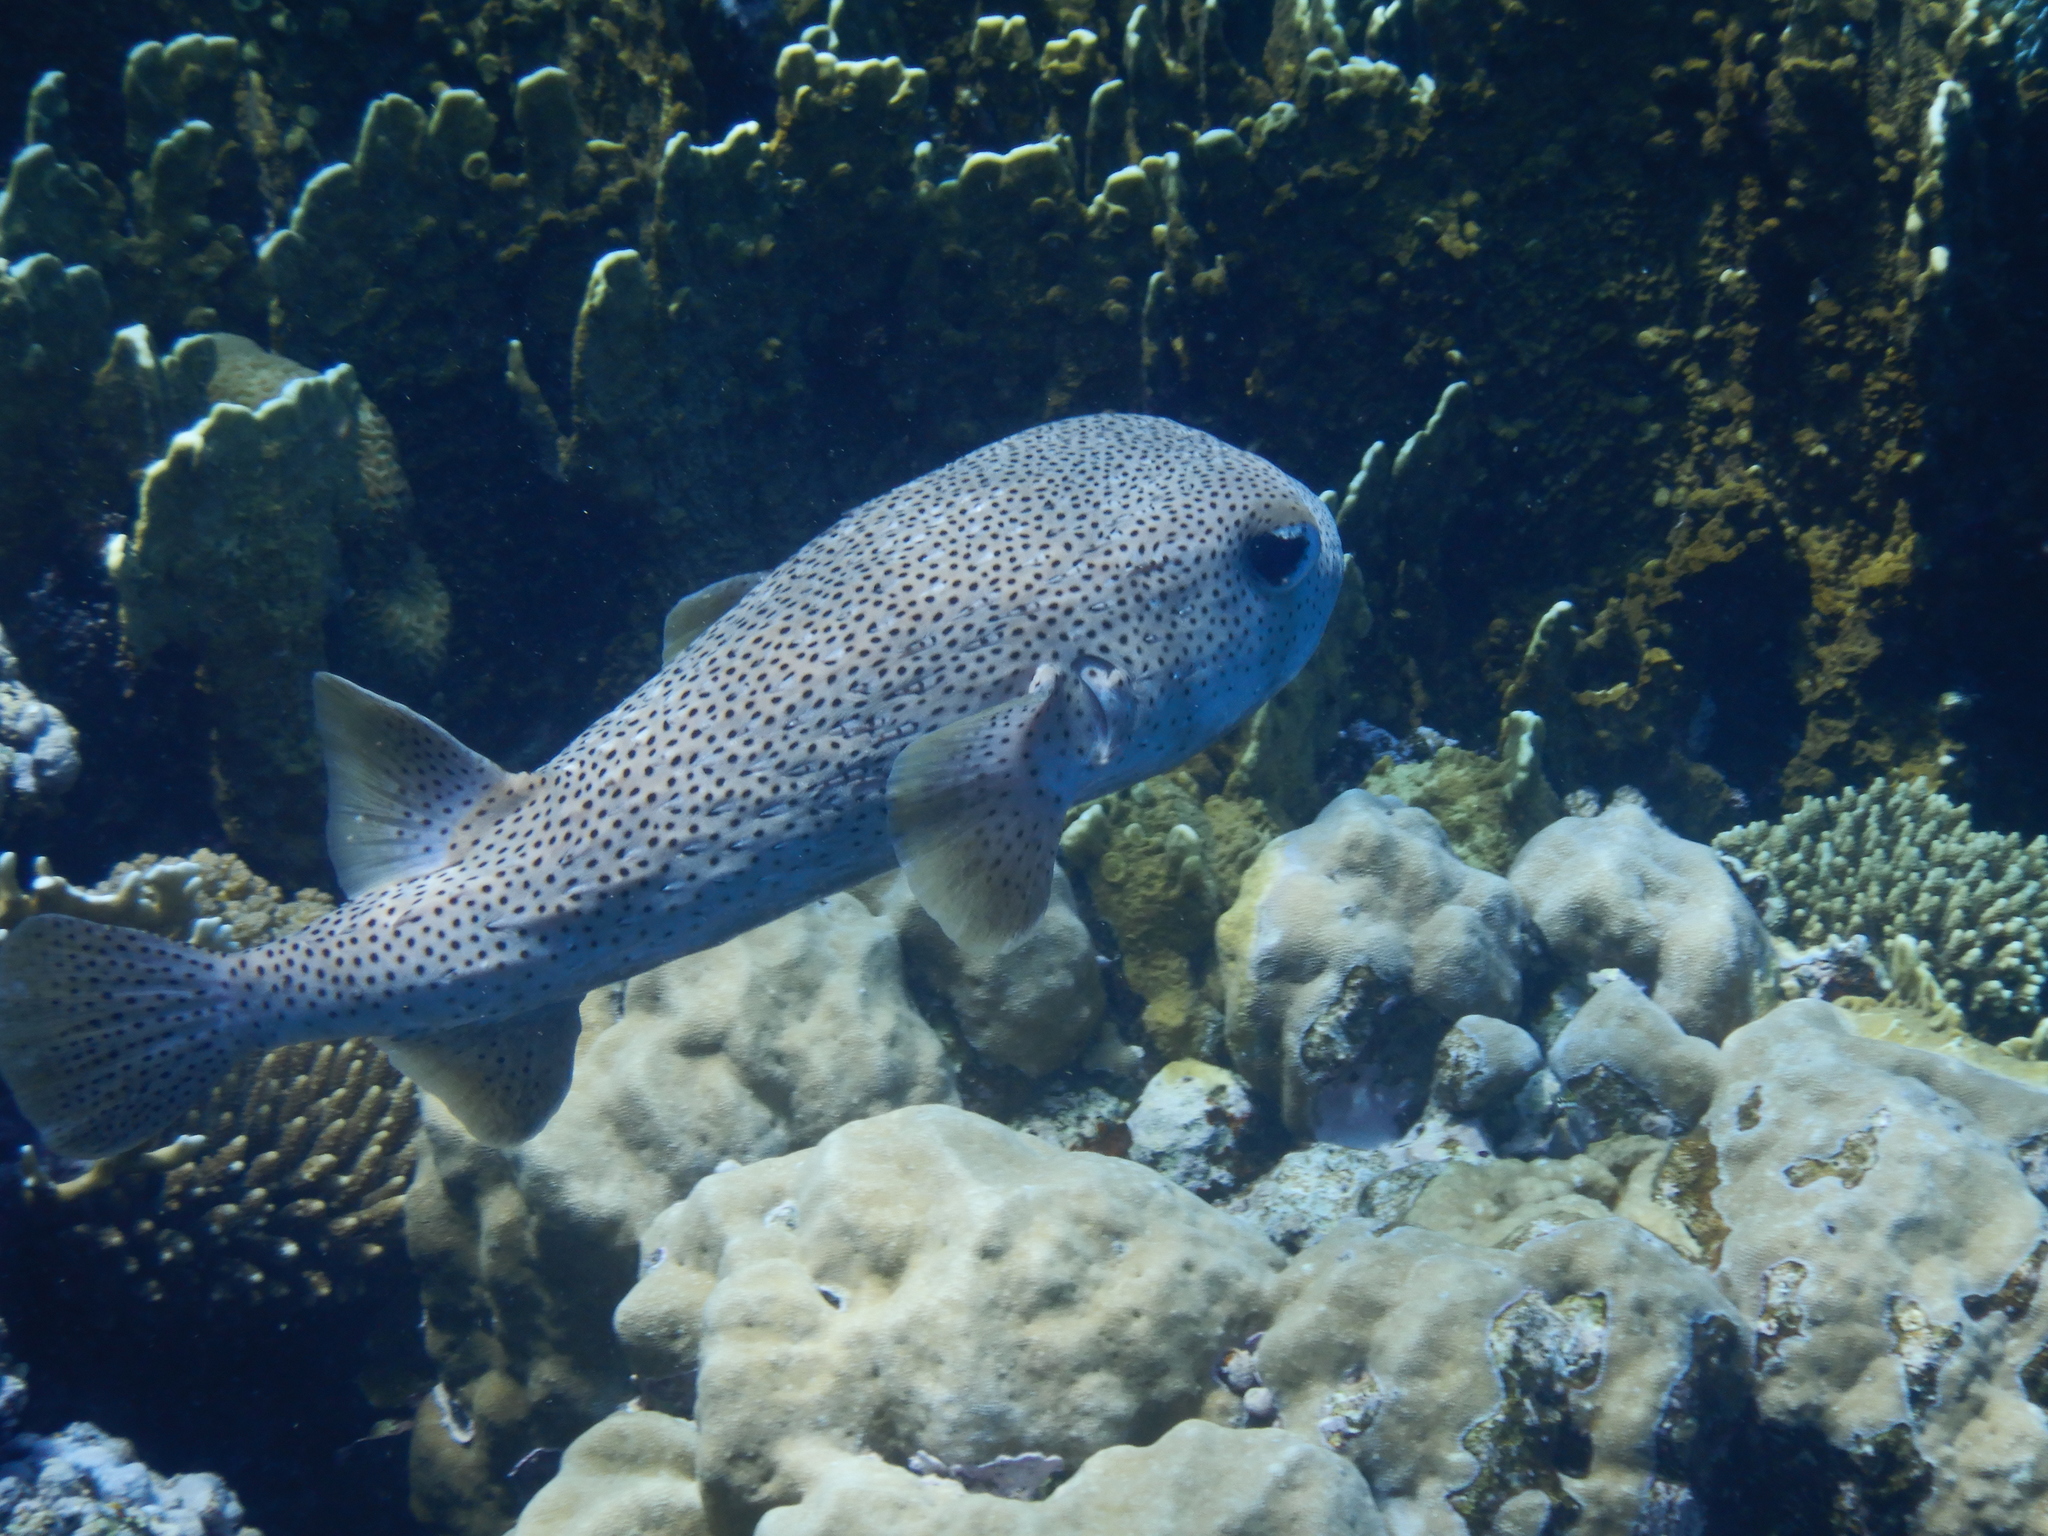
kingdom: Animalia
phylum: Chordata
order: Tetraodontiformes
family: Diodontidae
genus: Diodon
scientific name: Diodon hystrix
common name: Giant porcupinefish
